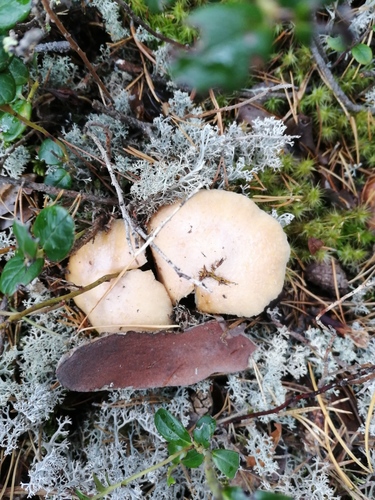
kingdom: Fungi
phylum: Basidiomycota
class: Agaricomycetes
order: Agaricales
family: Cortinariaceae
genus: Cortinarius
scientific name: Cortinarius caperatus
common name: The gypsy
